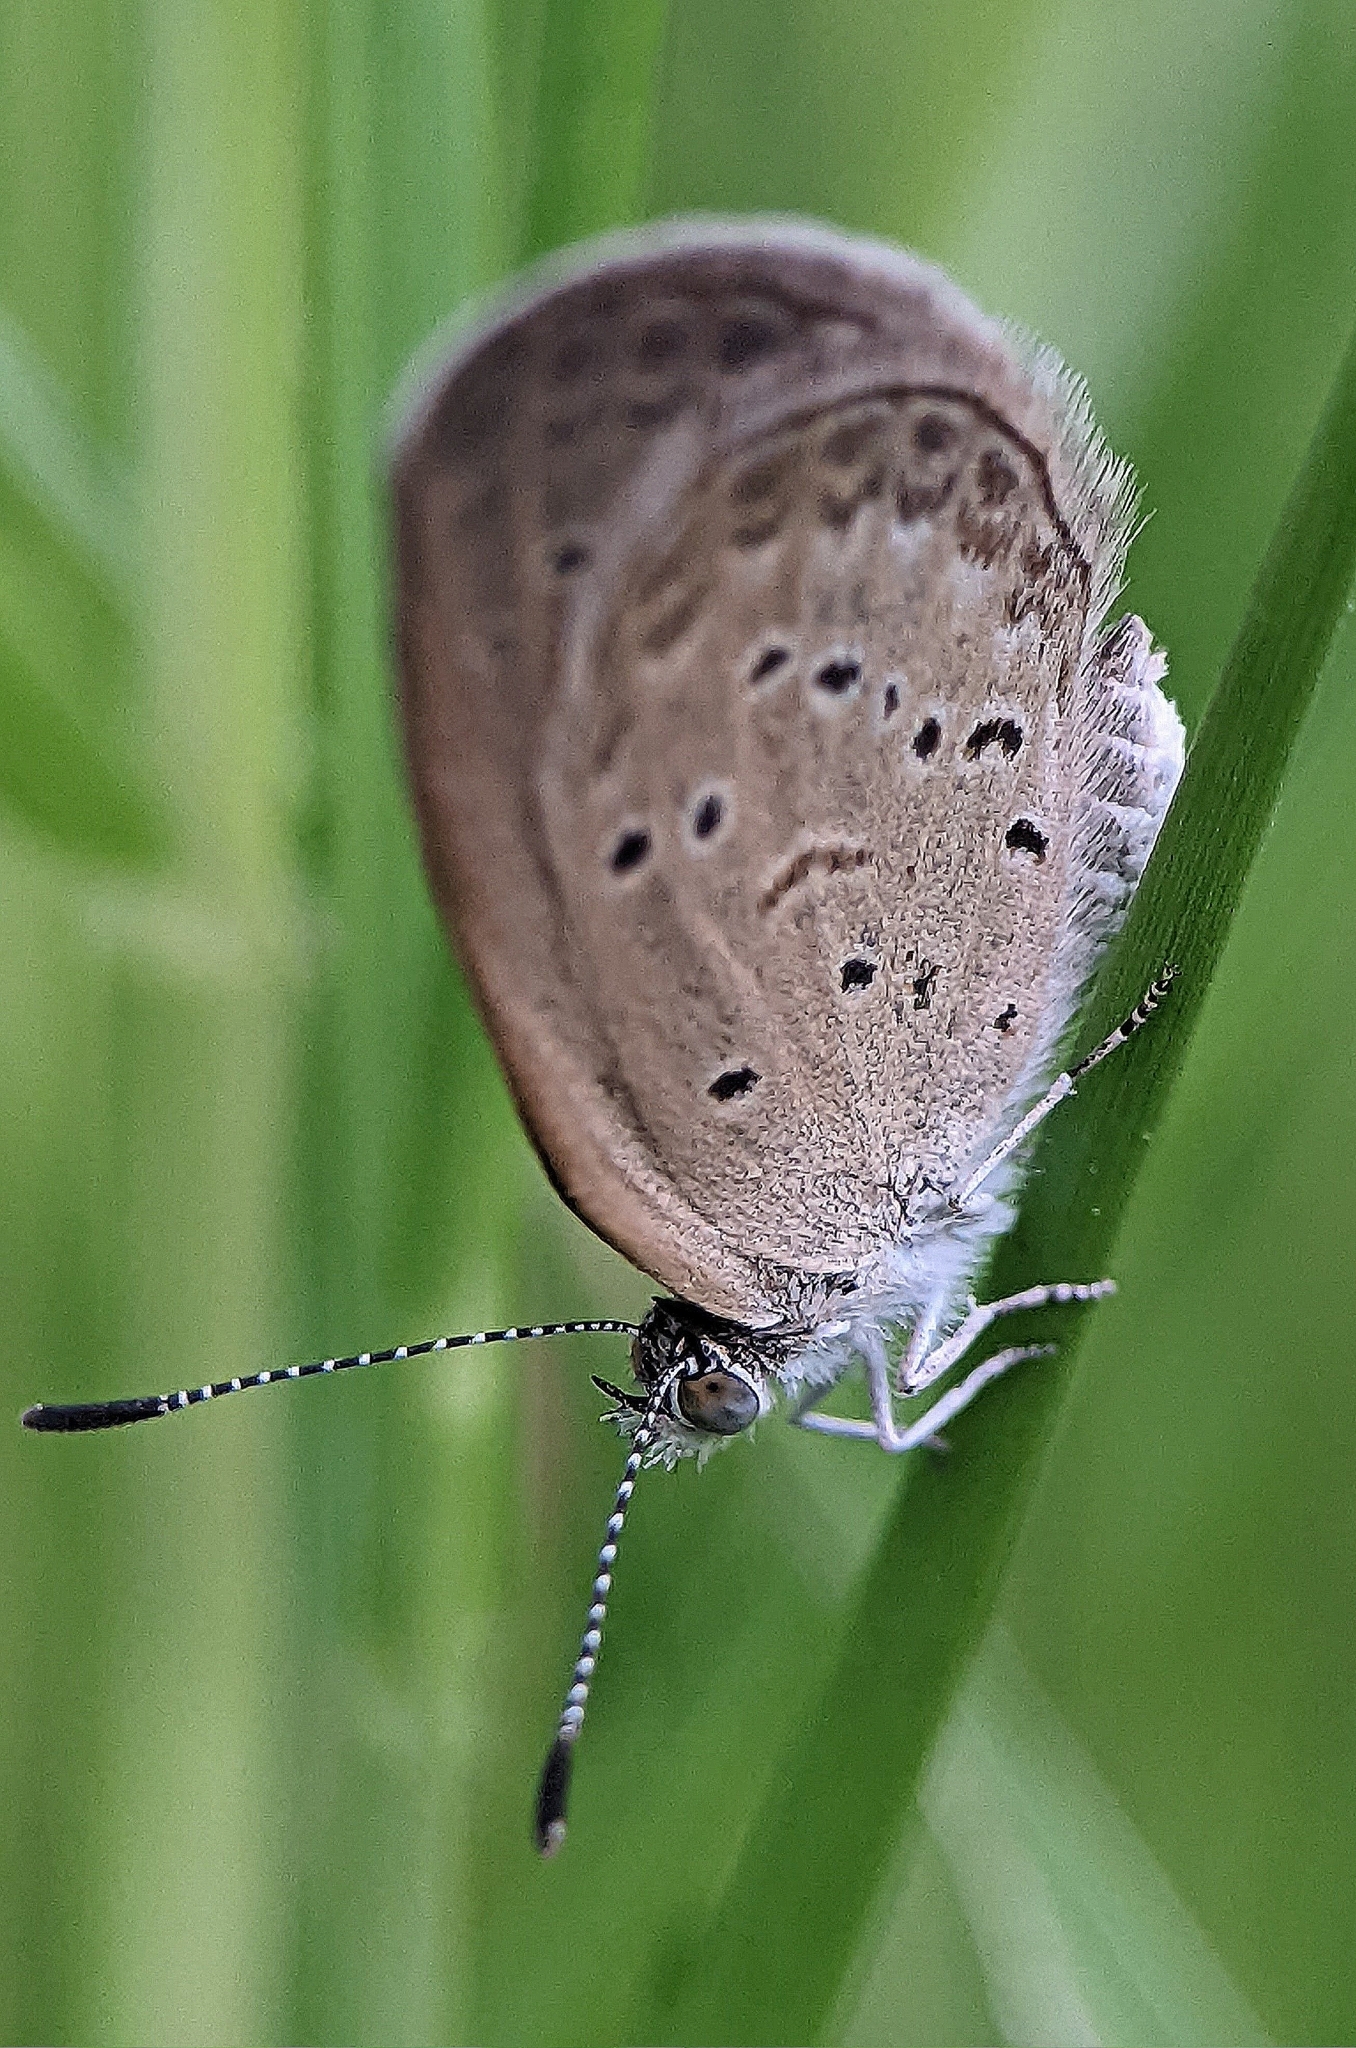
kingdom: Animalia
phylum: Arthropoda
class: Insecta
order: Lepidoptera
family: Lycaenidae
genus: Zizina
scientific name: Zizina otis
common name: Lesser grass blue
